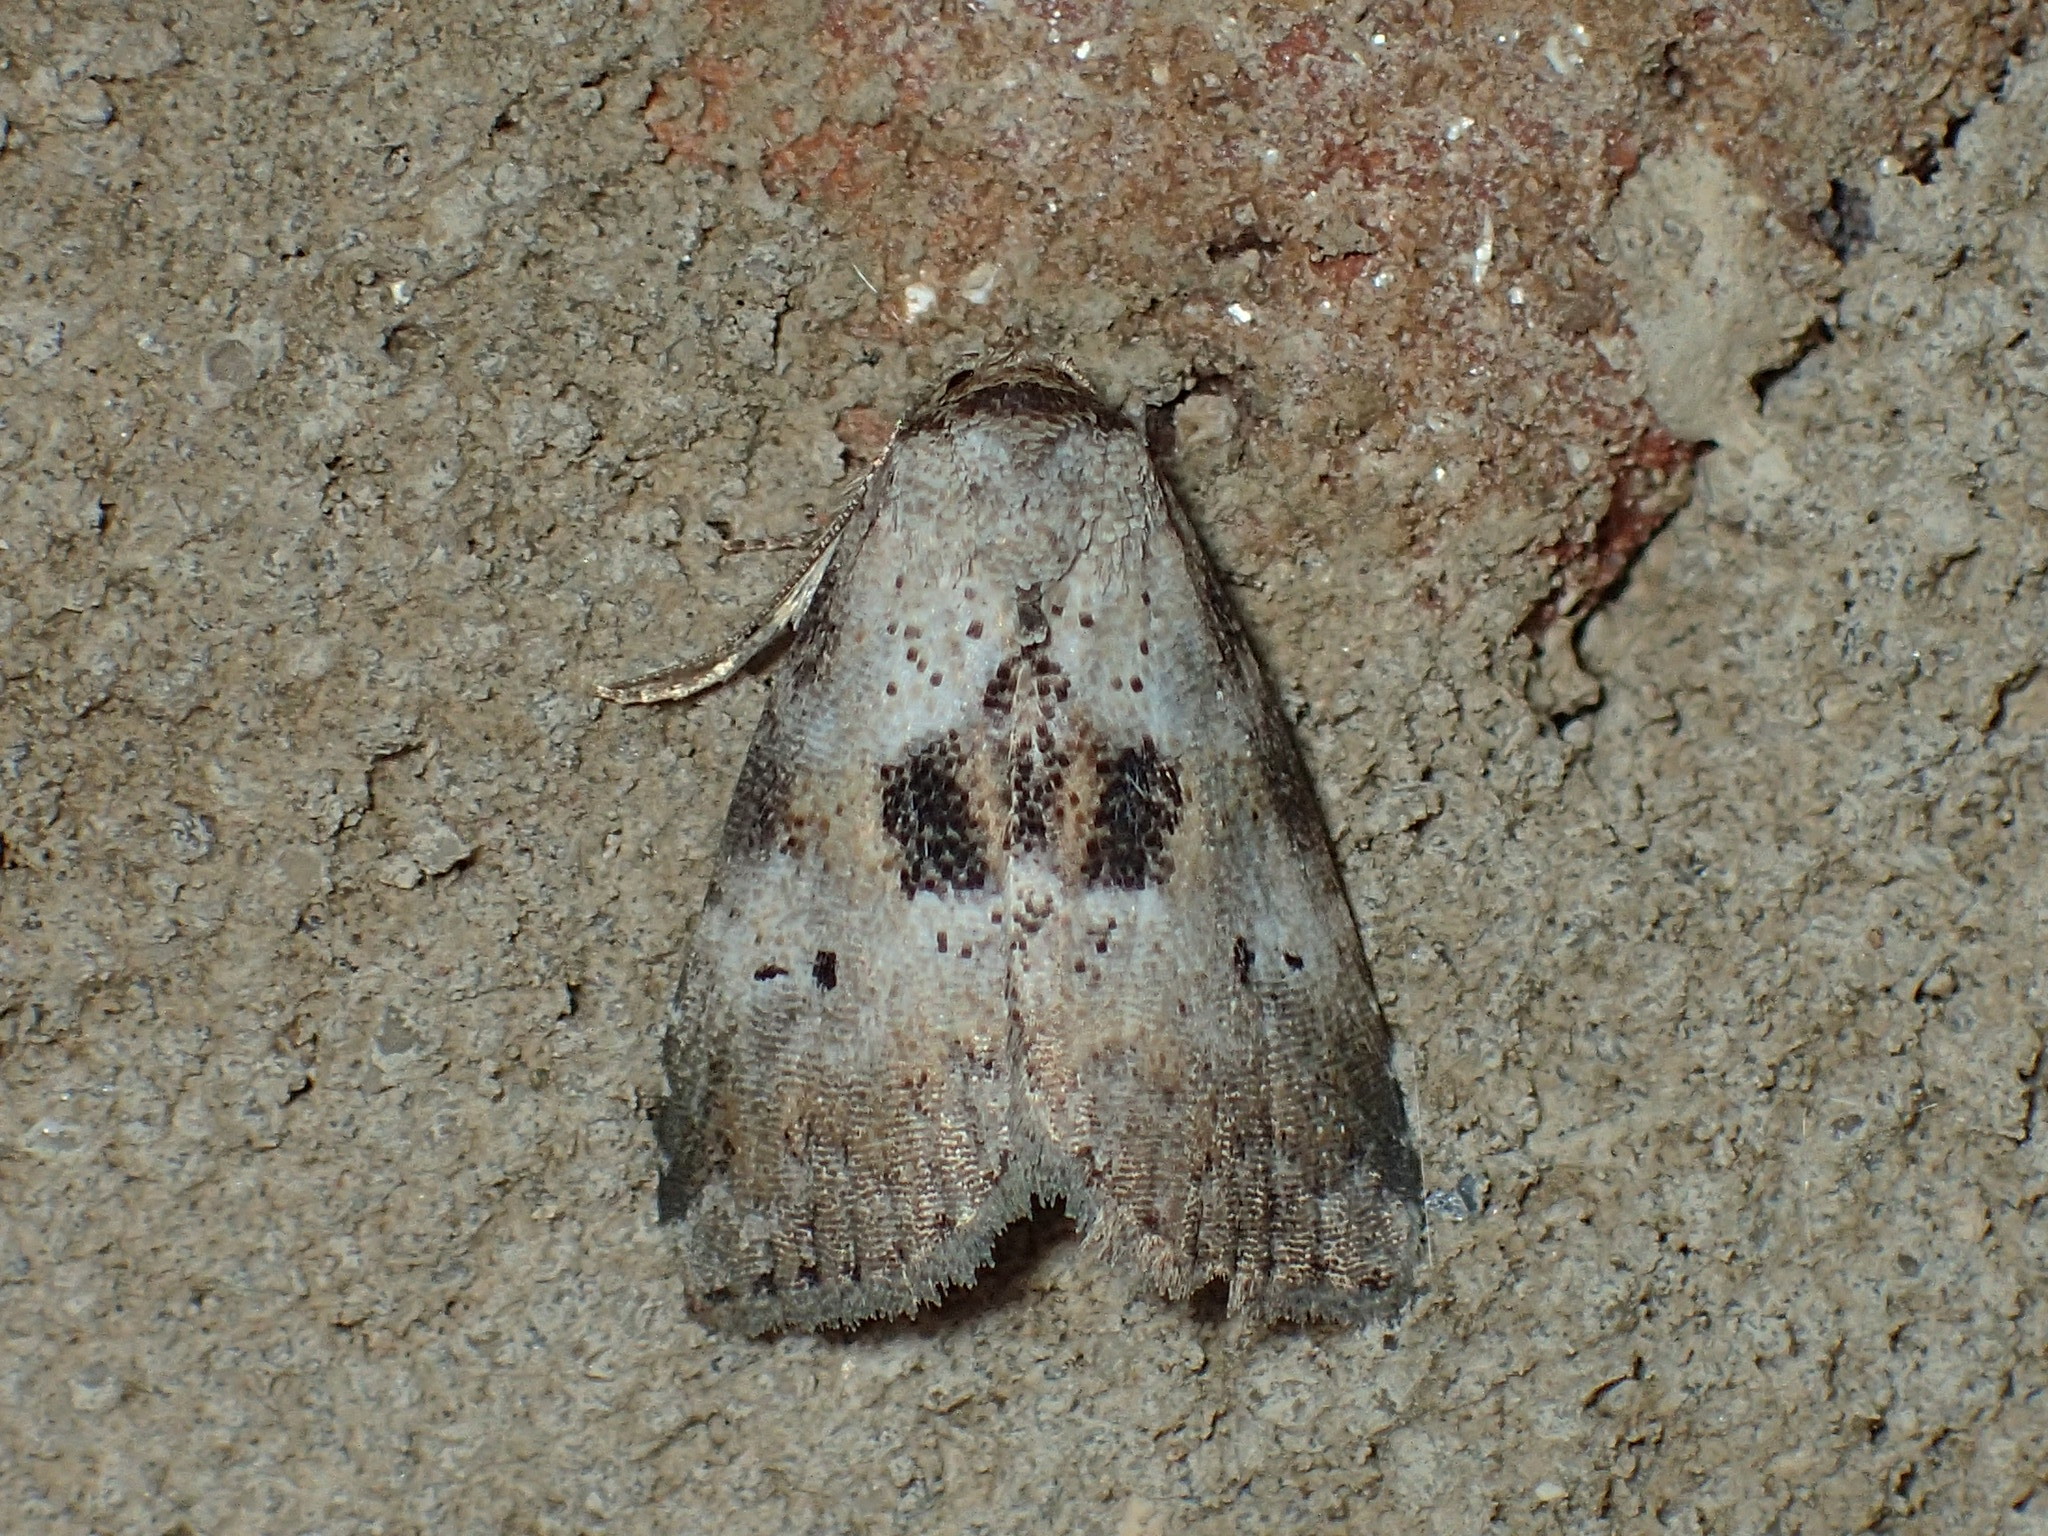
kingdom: Animalia
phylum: Arthropoda
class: Insecta
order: Lepidoptera
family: Erebidae
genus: Hyperstrotia
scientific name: Hyperstrotia secta
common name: Black-patched graylet
